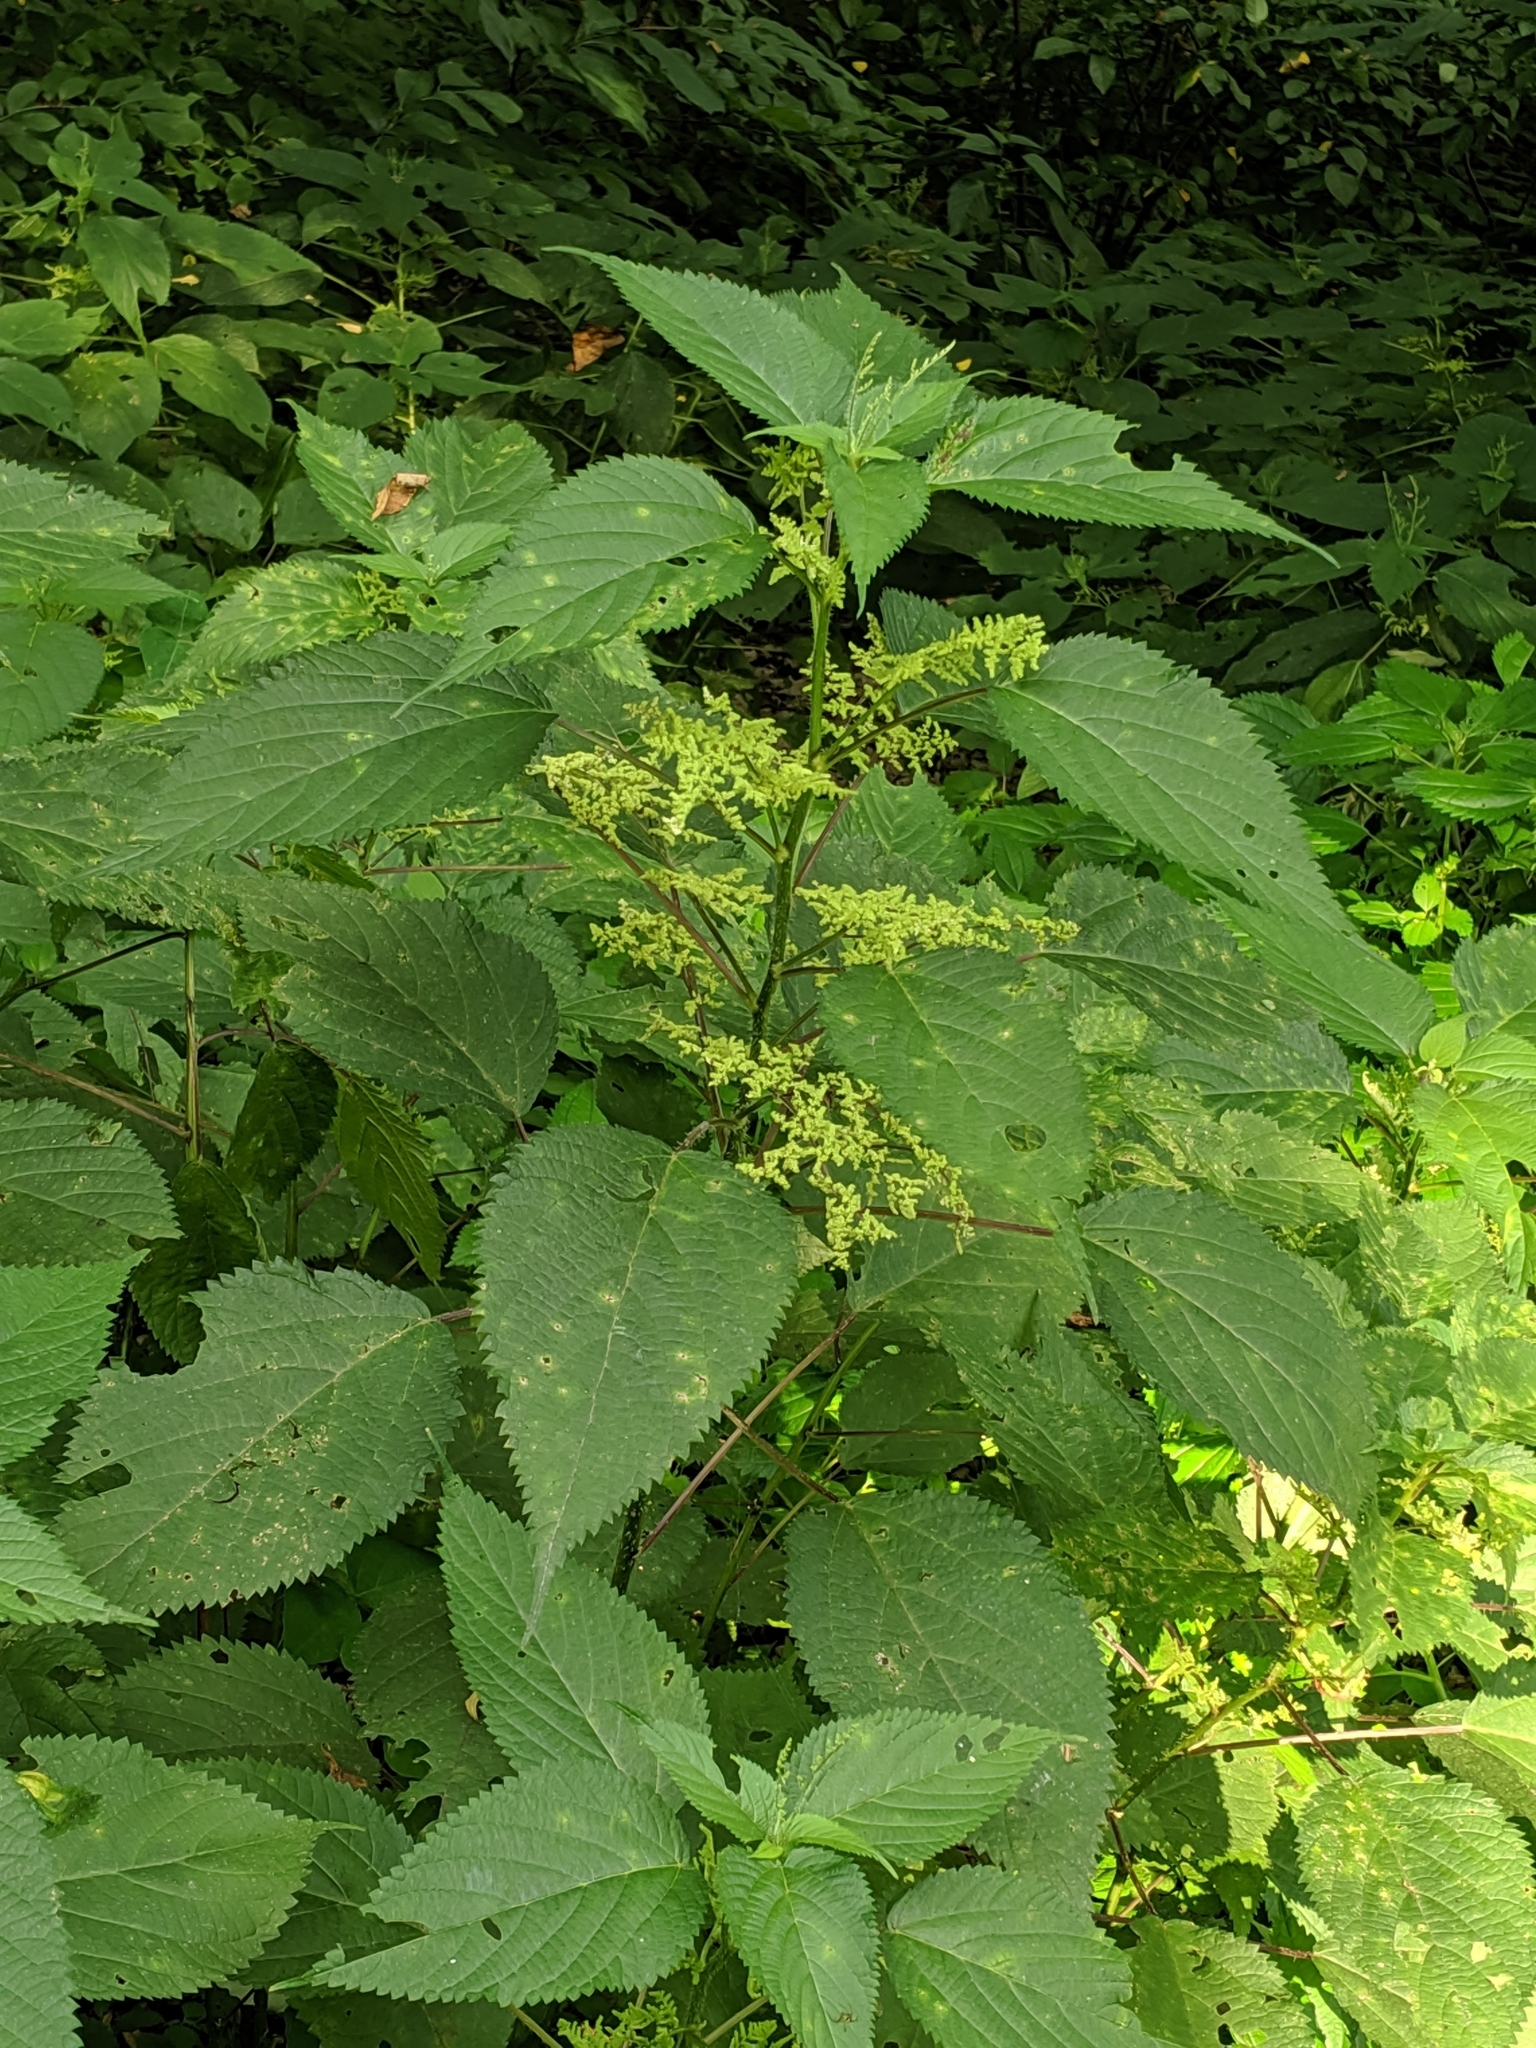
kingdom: Plantae
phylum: Tracheophyta
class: Magnoliopsida
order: Rosales
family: Urticaceae
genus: Laportea
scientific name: Laportea canadensis
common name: Canada nettle
